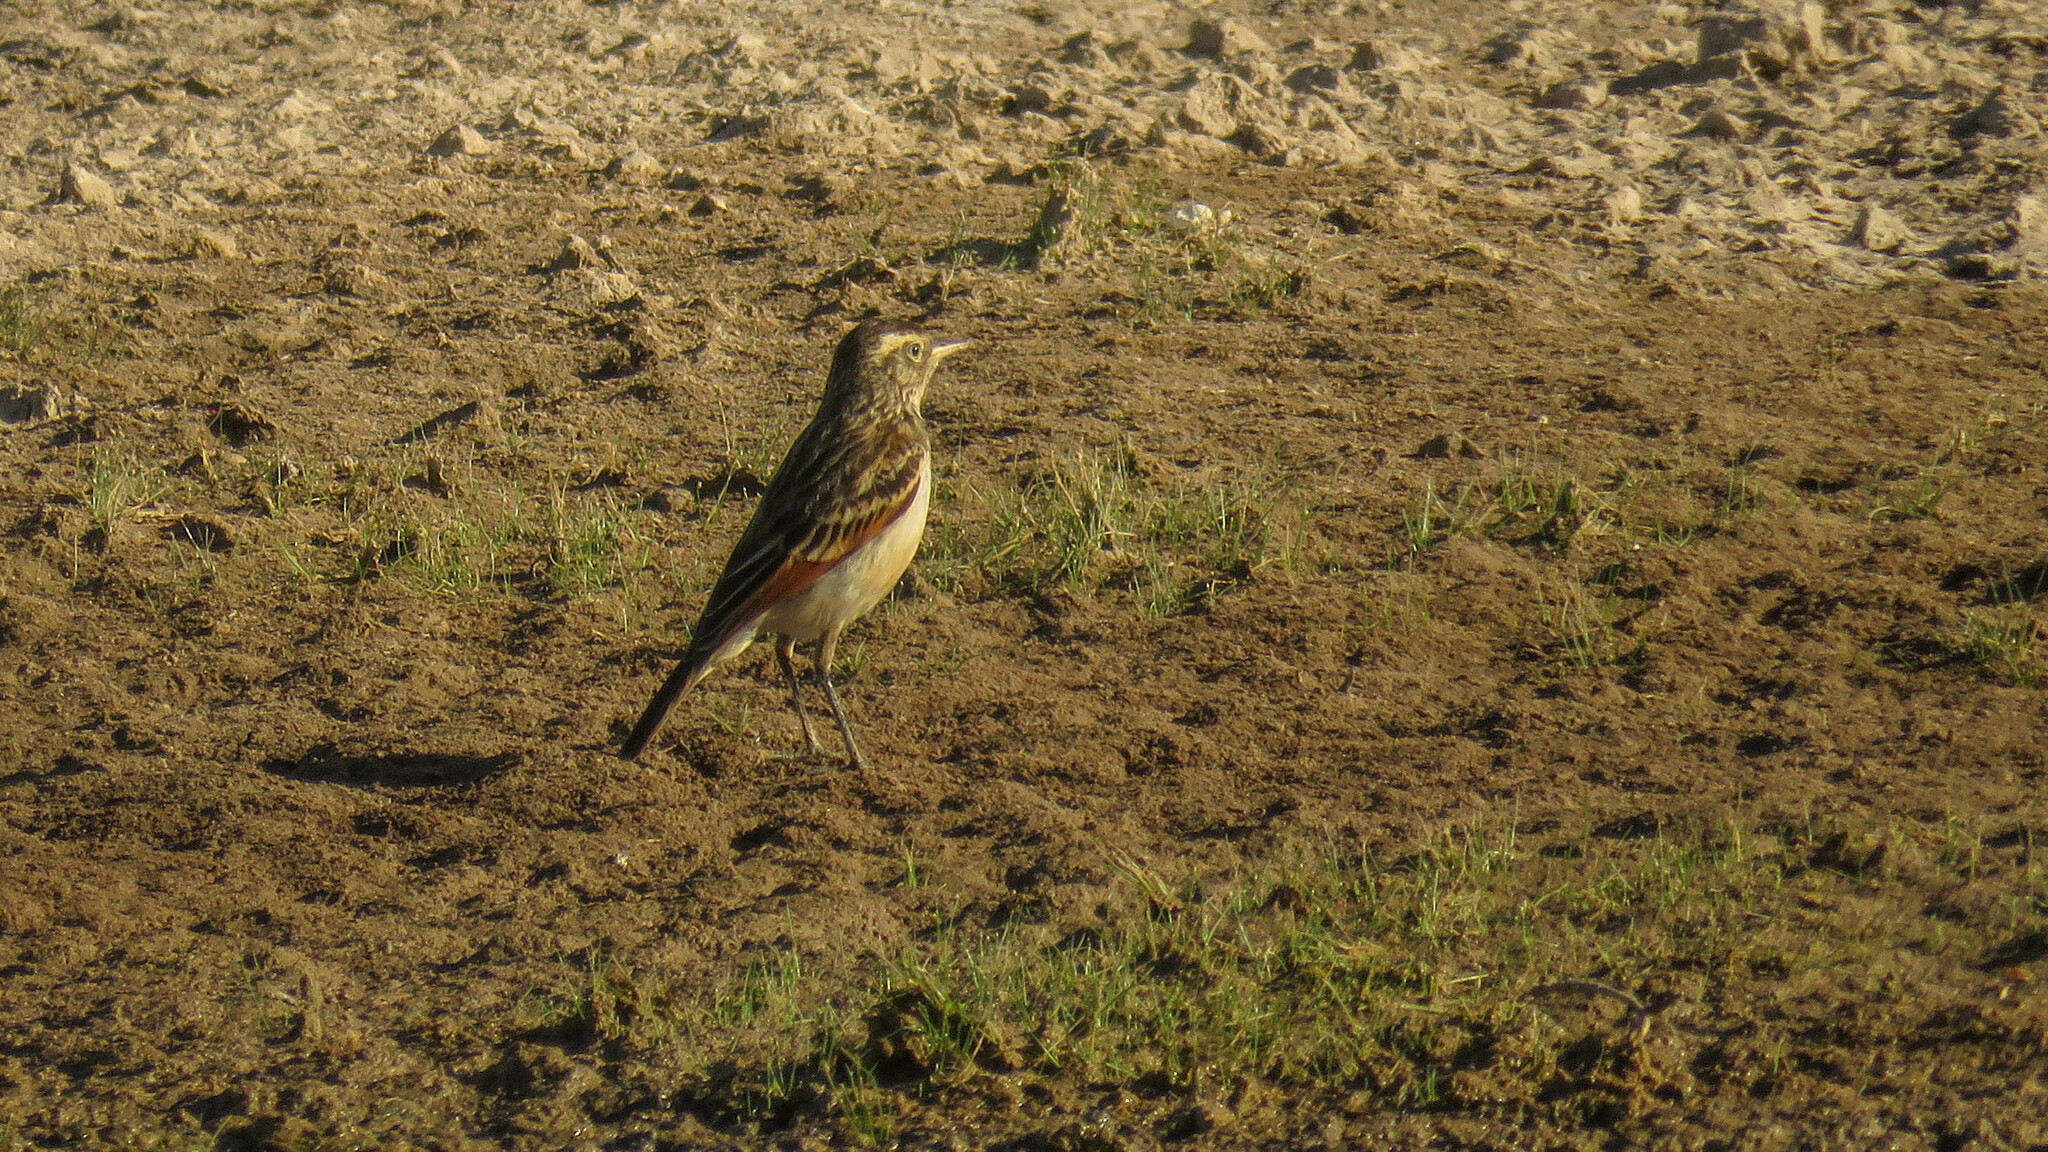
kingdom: Animalia
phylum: Chordata
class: Aves
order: Passeriformes
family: Tyrannidae
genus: Hymenops
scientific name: Hymenops perspicillatus
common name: Spectacled tyrant
